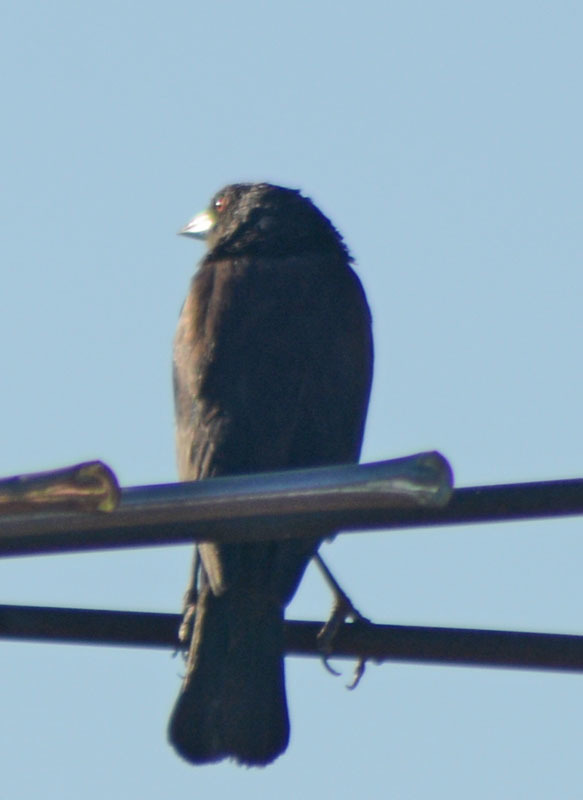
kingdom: Animalia
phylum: Chordata
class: Aves
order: Passeriformes
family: Icteridae
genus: Molothrus
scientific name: Molothrus aeneus
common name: Bronzed cowbird
